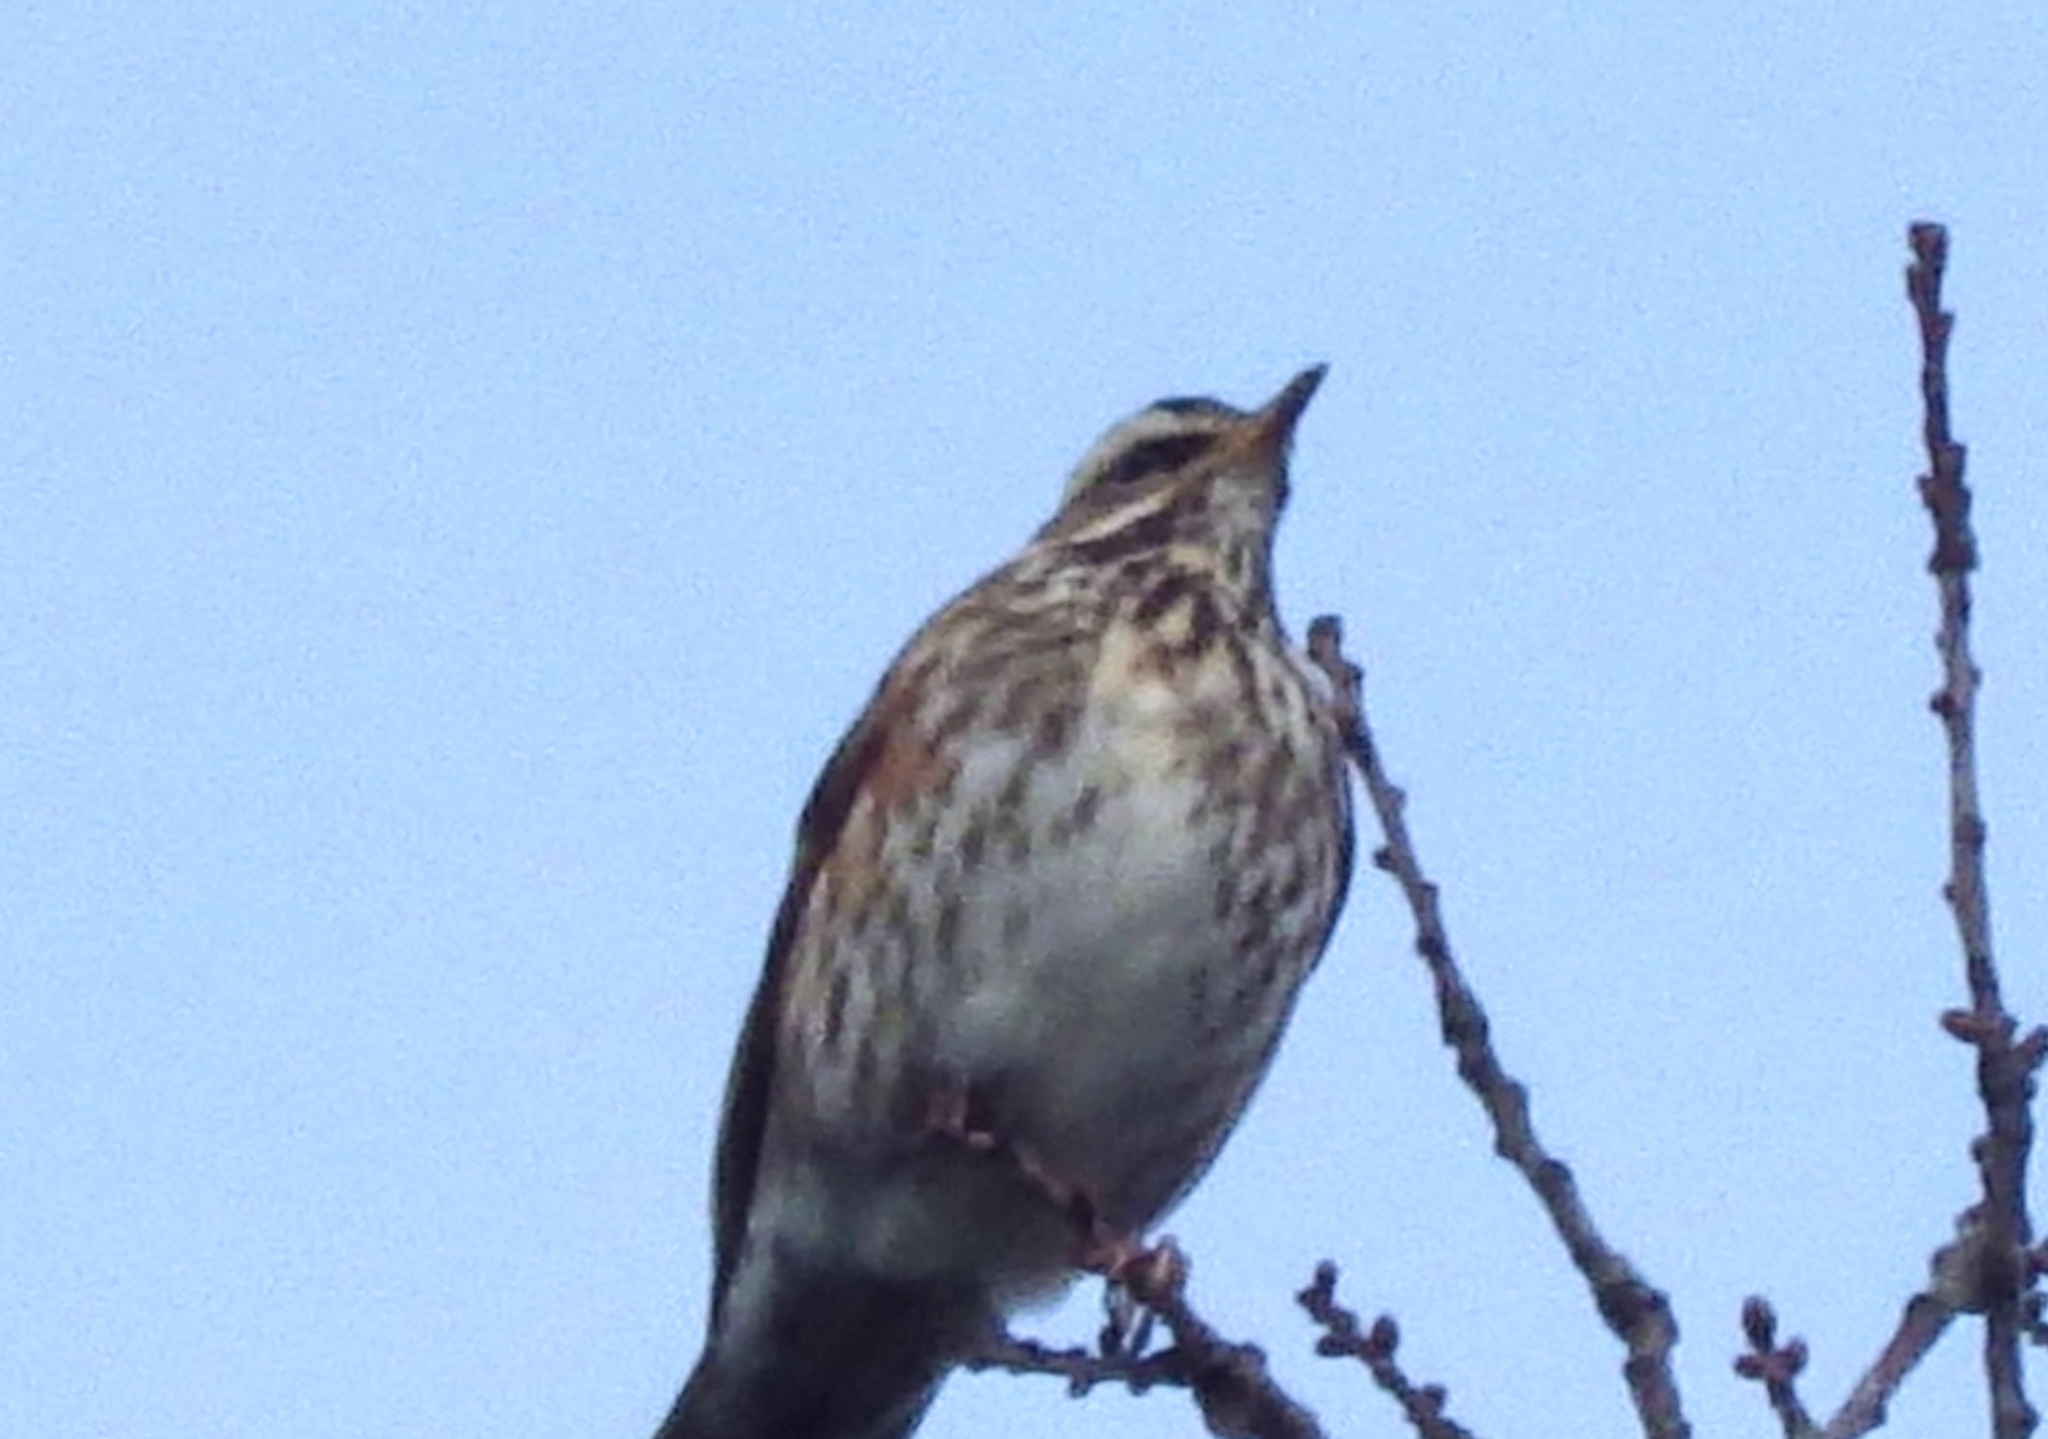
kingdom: Animalia
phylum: Chordata
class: Aves
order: Passeriformes
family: Turdidae
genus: Turdus
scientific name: Turdus iliacus
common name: Redwing
